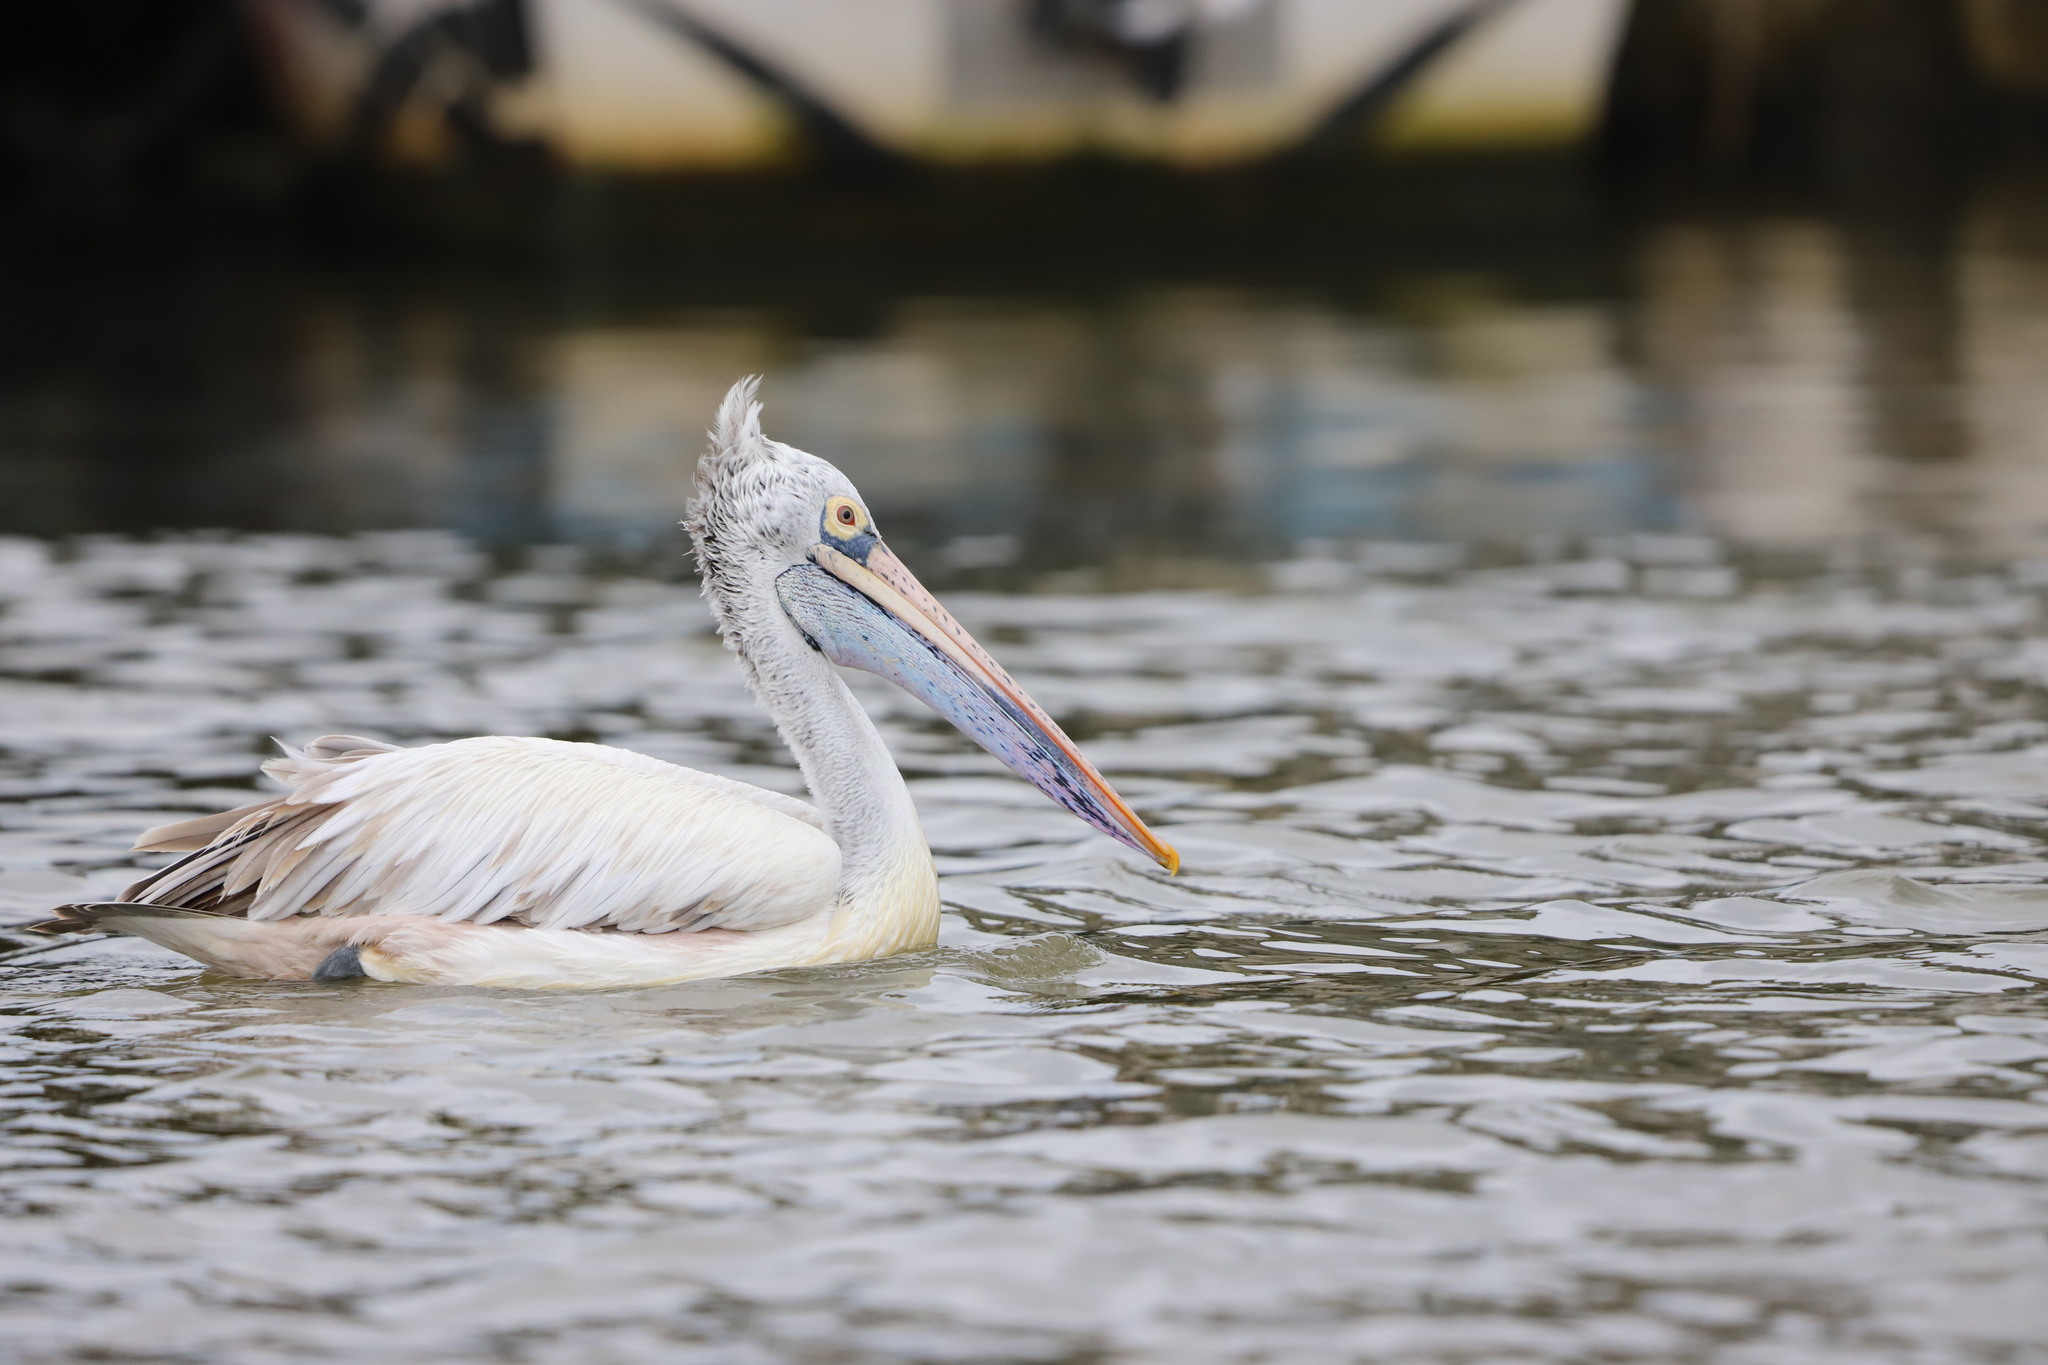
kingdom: Animalia
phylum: Chordata
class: Aves
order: Pelecaniformes
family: Pelecanidae
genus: Pelecanus
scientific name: Pelecanus philippensis
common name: Spot-billed pelican
